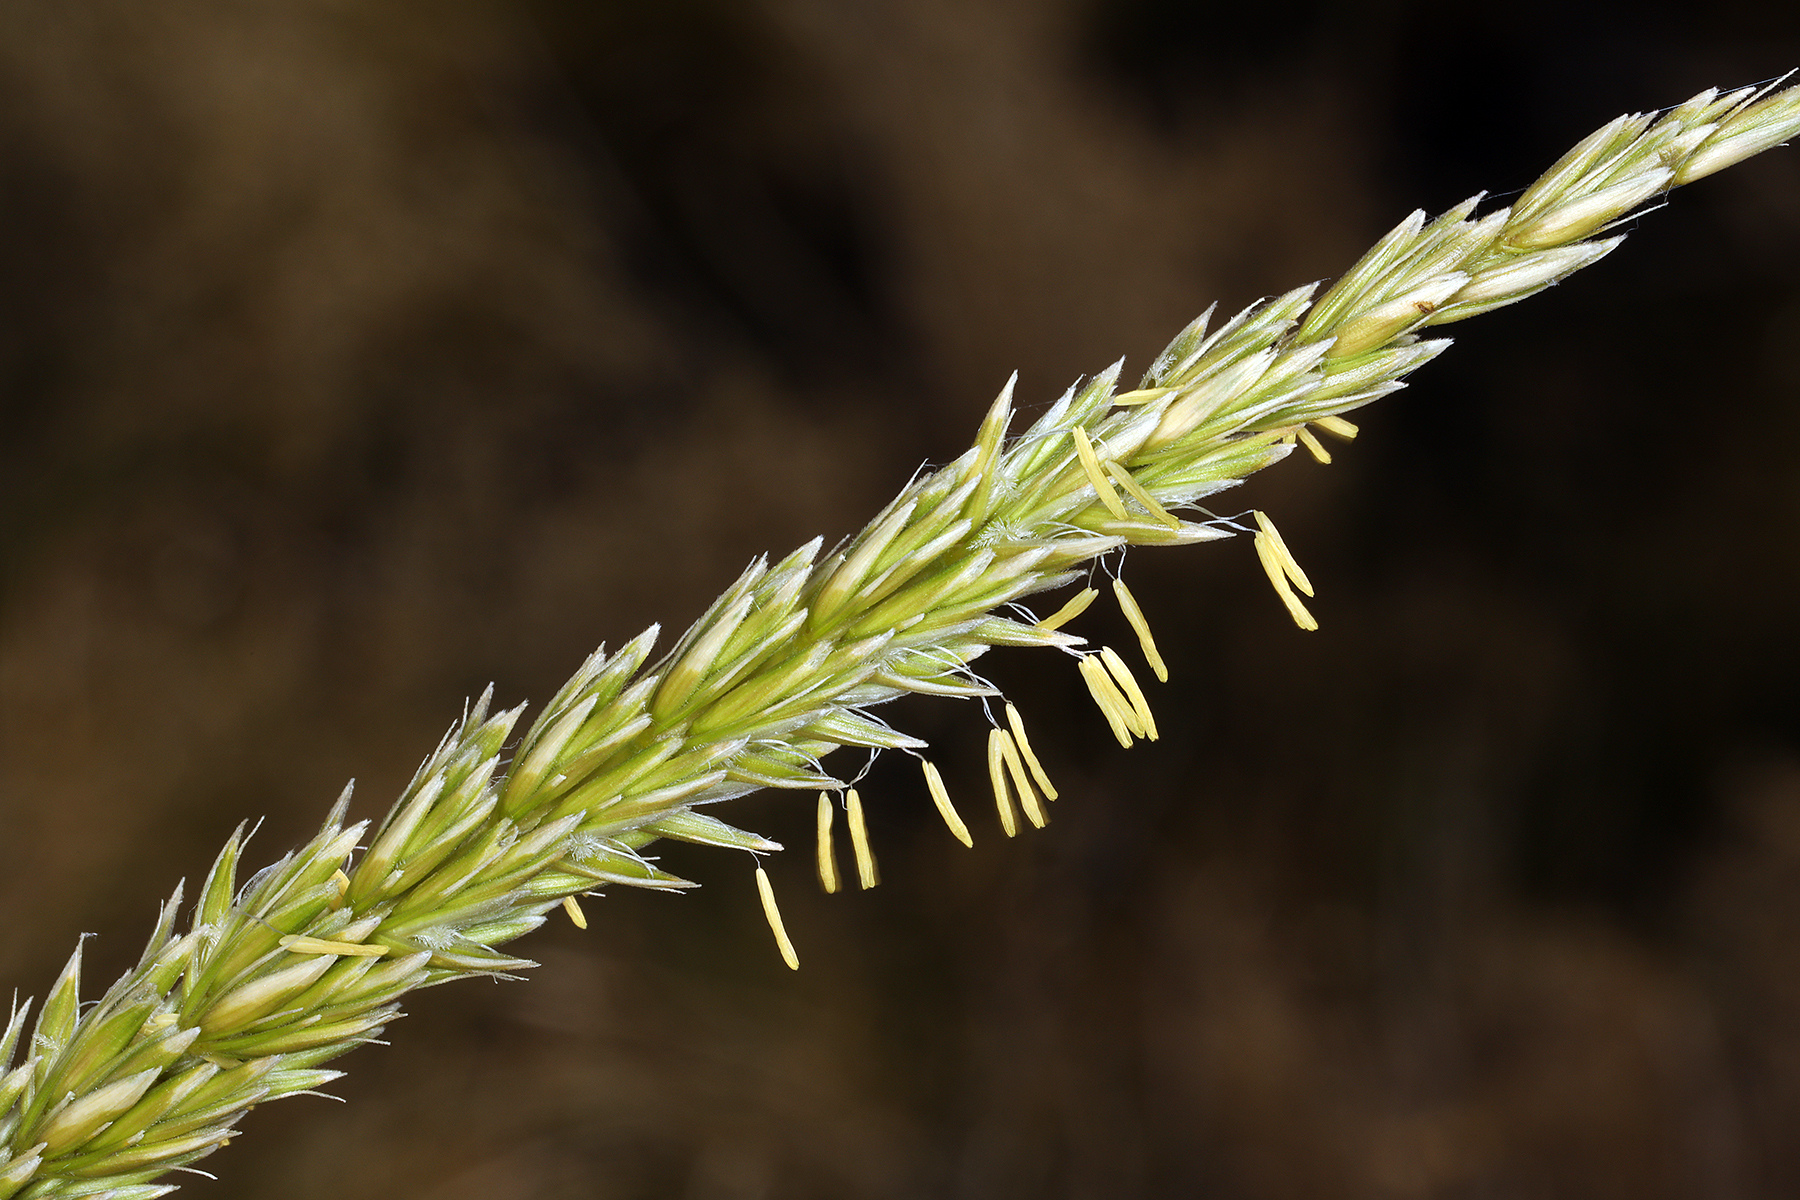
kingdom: Plantae
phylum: Tracheophyta
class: Liliopsida
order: Poales
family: Poaceae
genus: Leymus
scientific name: Leymus cinereus
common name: Basin wild rye
